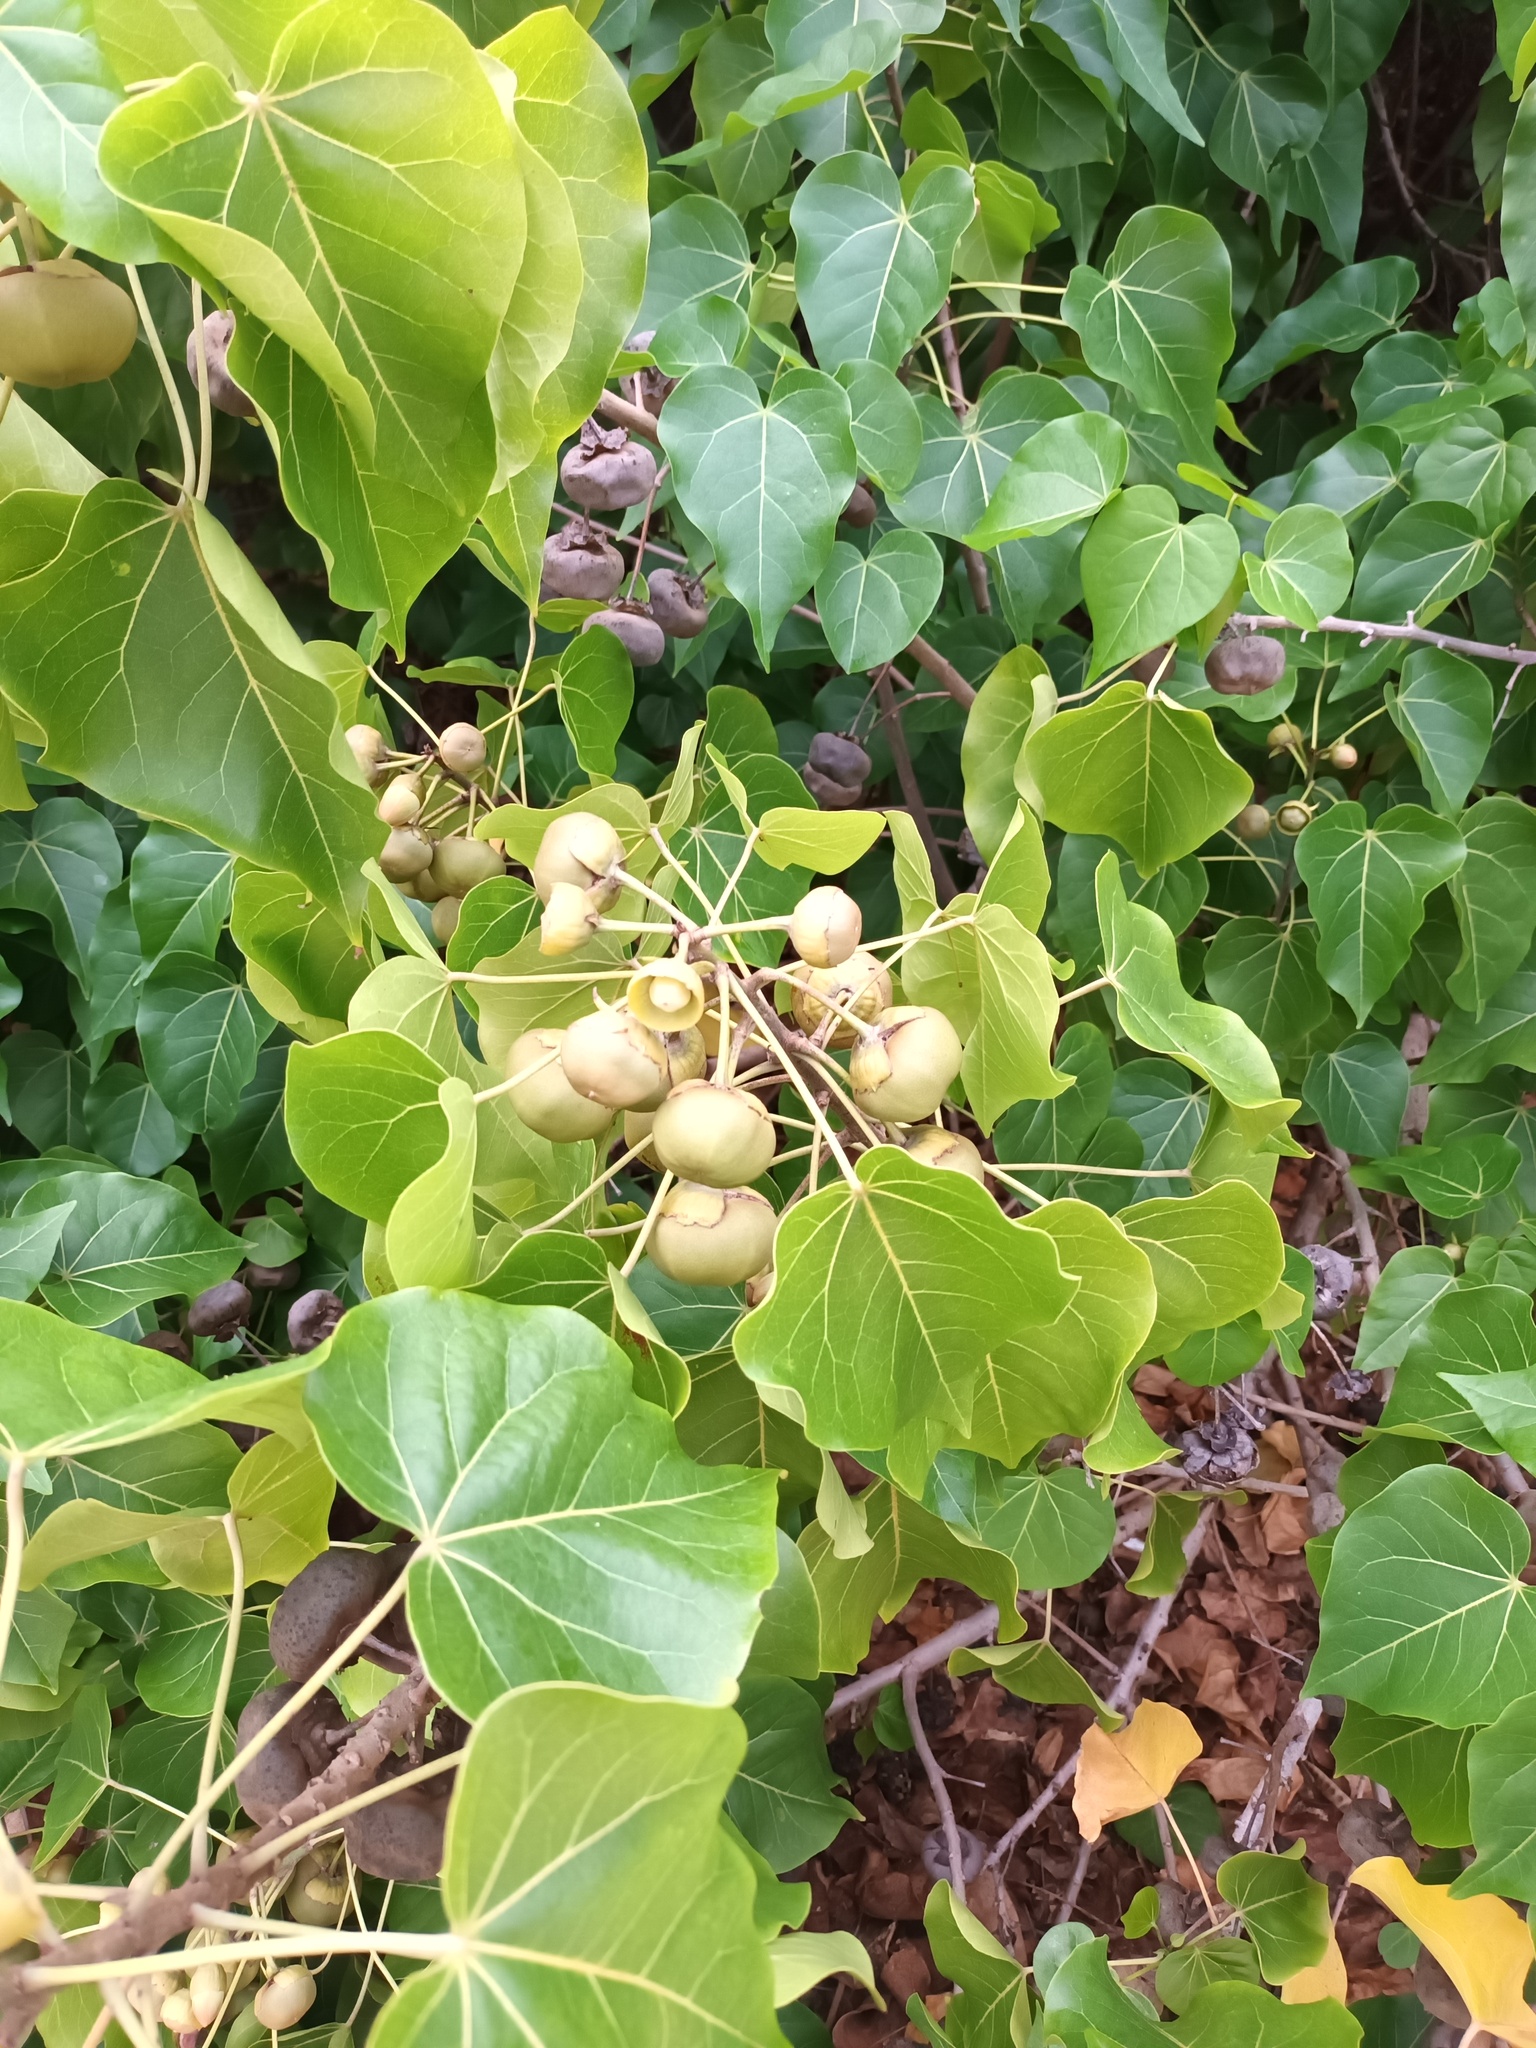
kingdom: Plantae
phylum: Tracheophyta
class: Magnoliopsida
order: Malvales
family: Malvaceae
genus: Thespesia
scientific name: Thespesia populnea
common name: Seaside mahoe
